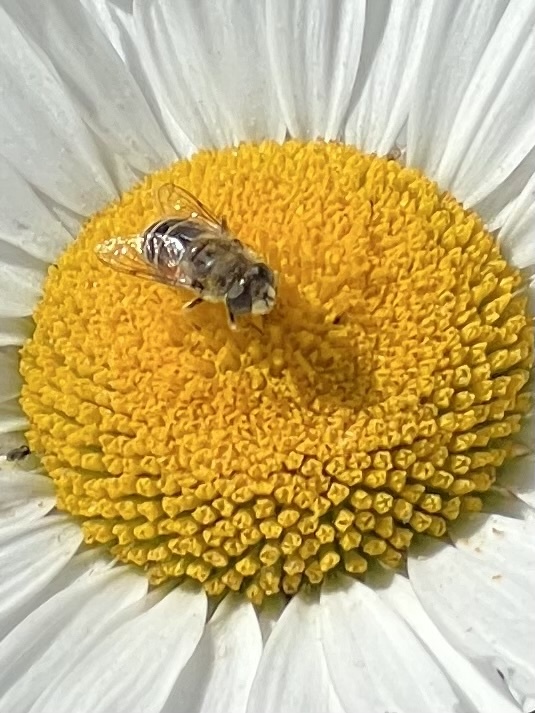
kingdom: Animalia
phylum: Arthropoda
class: Insecta
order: Diptera
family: Syrphidae
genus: Eristalis
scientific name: Eristalis arbustorum
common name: Hover fly
